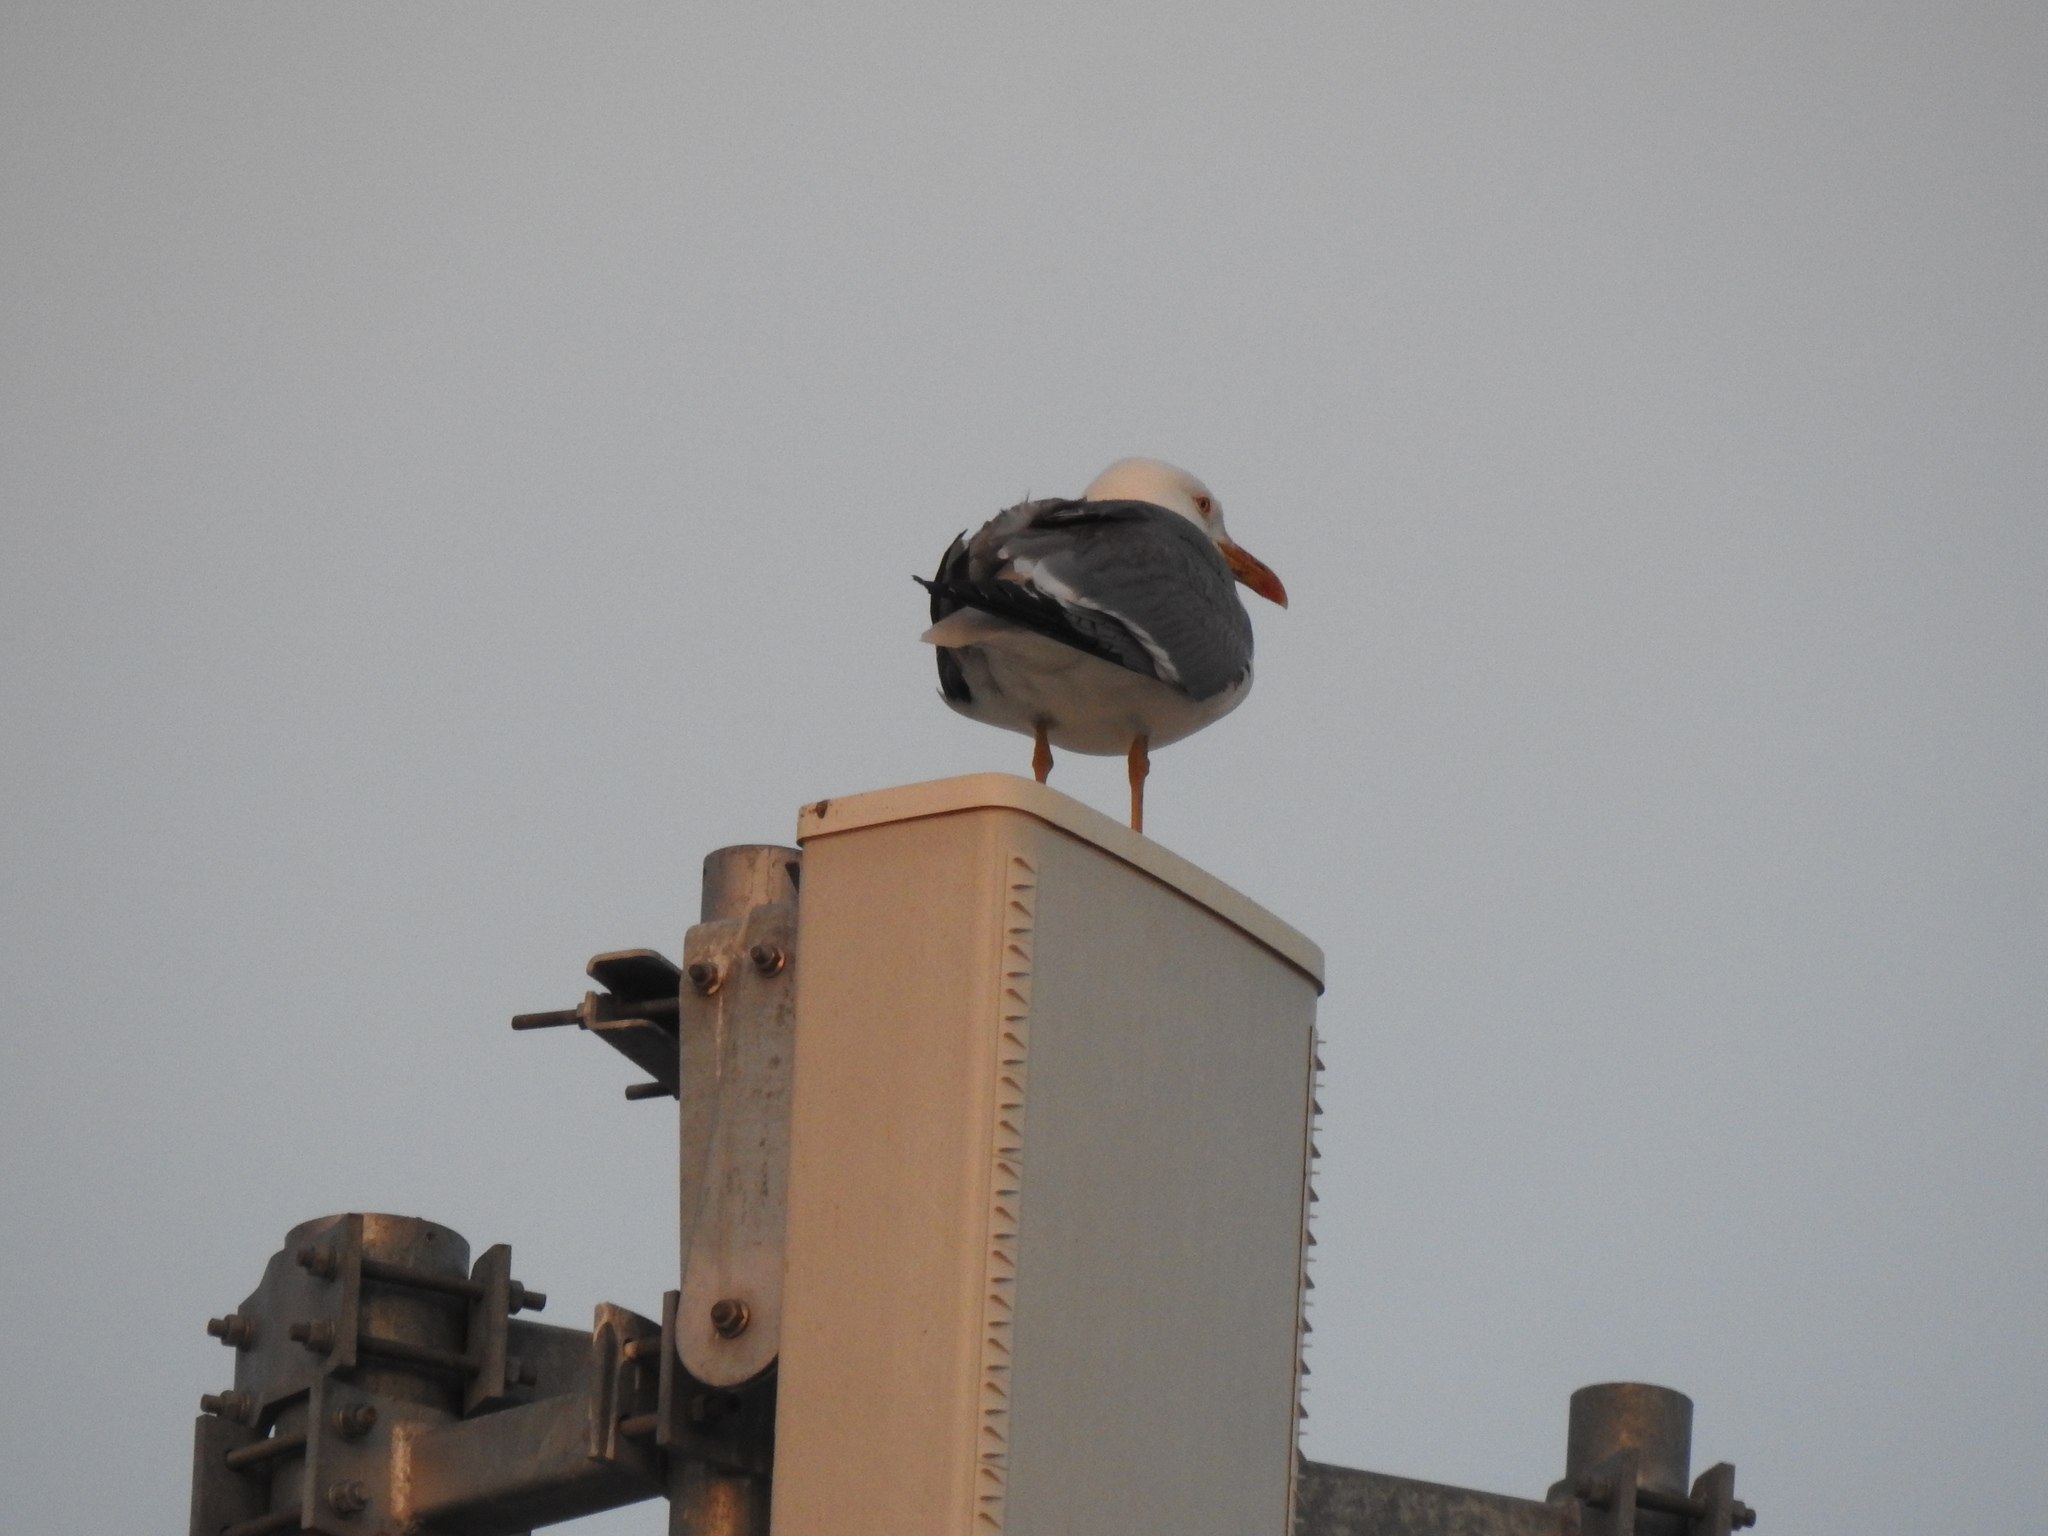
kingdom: Animalia
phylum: Chordata
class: Aves
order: Charadriiformes
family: Laridae
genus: Larus
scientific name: Larus michahellis
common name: Yellow-legged gull
